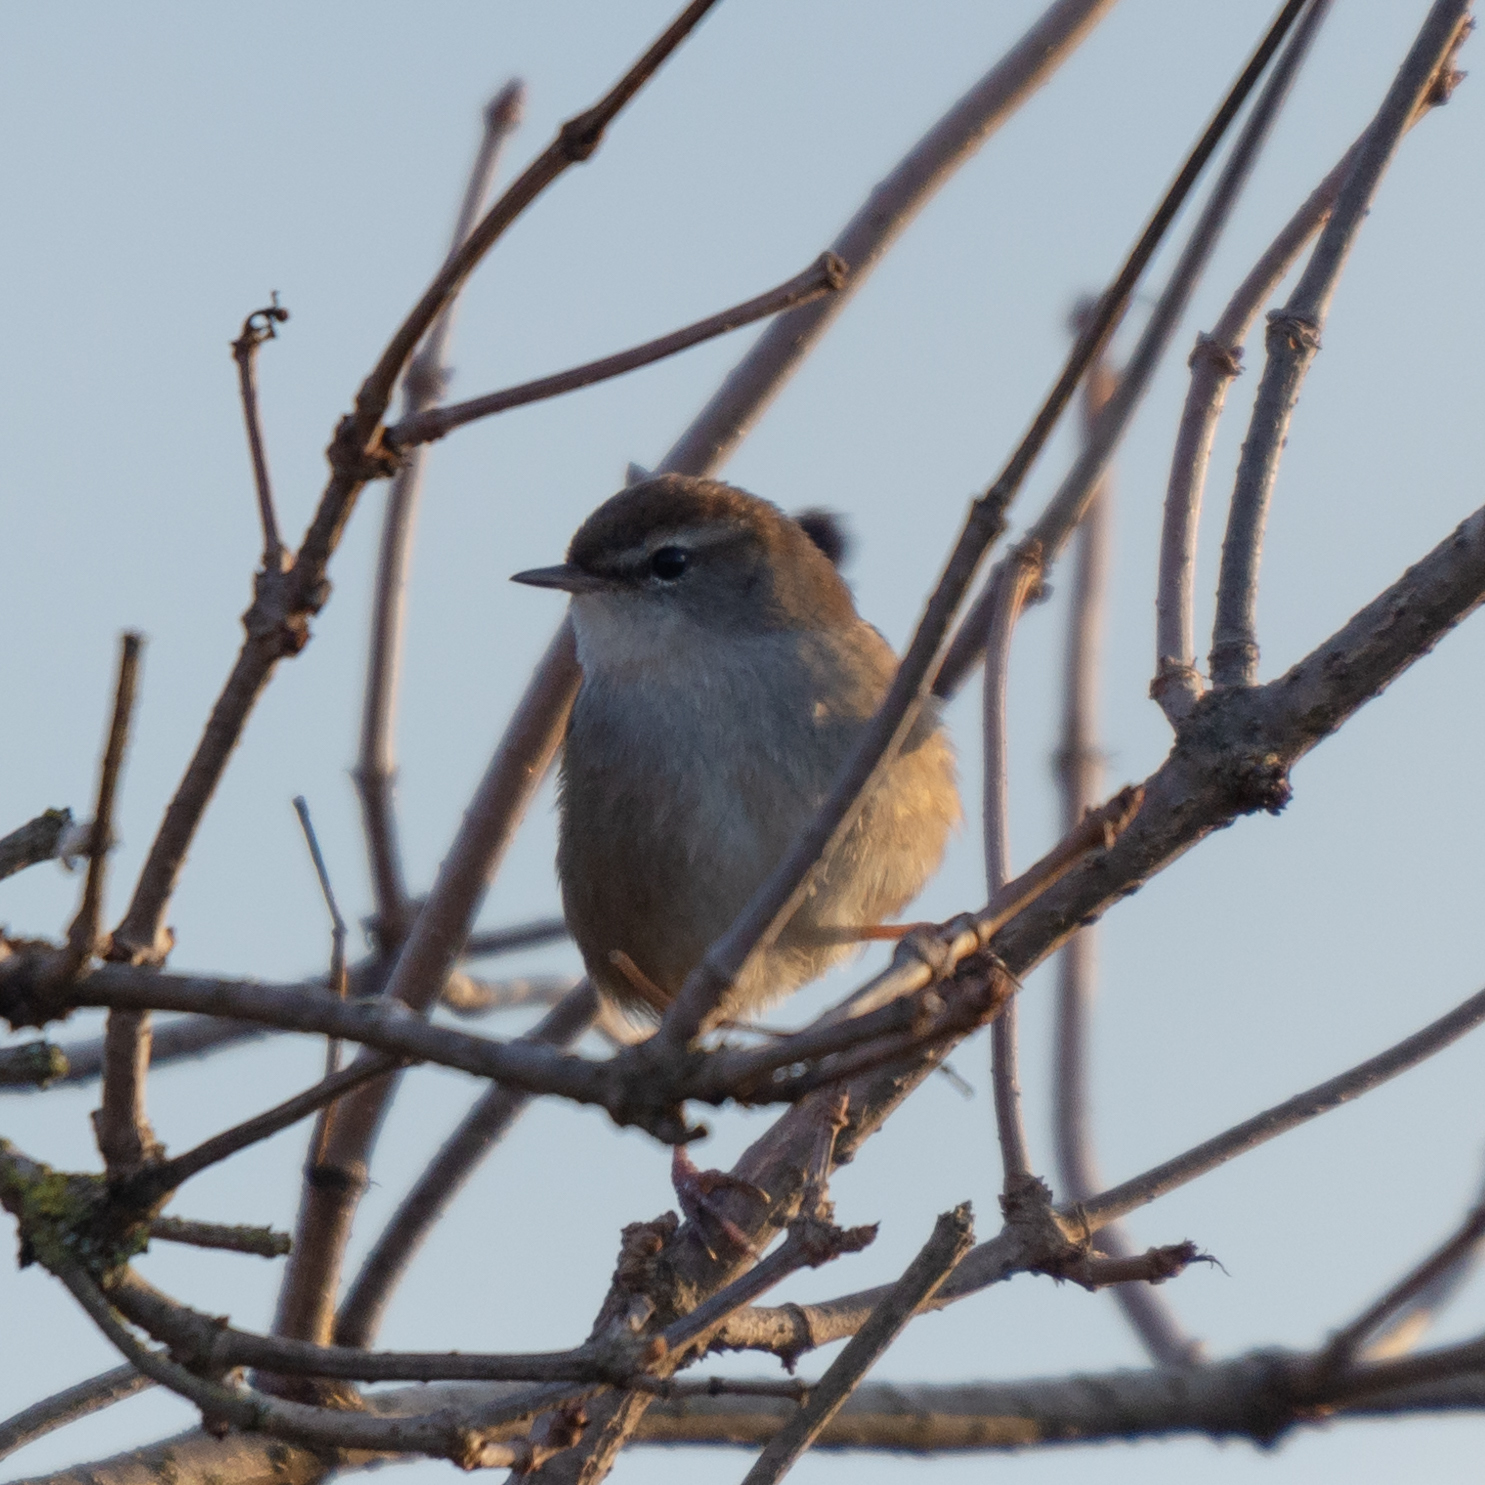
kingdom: Animalia
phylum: Chordata
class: Aves
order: Passeriformes
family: Cettiidae
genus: Cettia
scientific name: Cettia cetti
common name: Cetti's warbler
